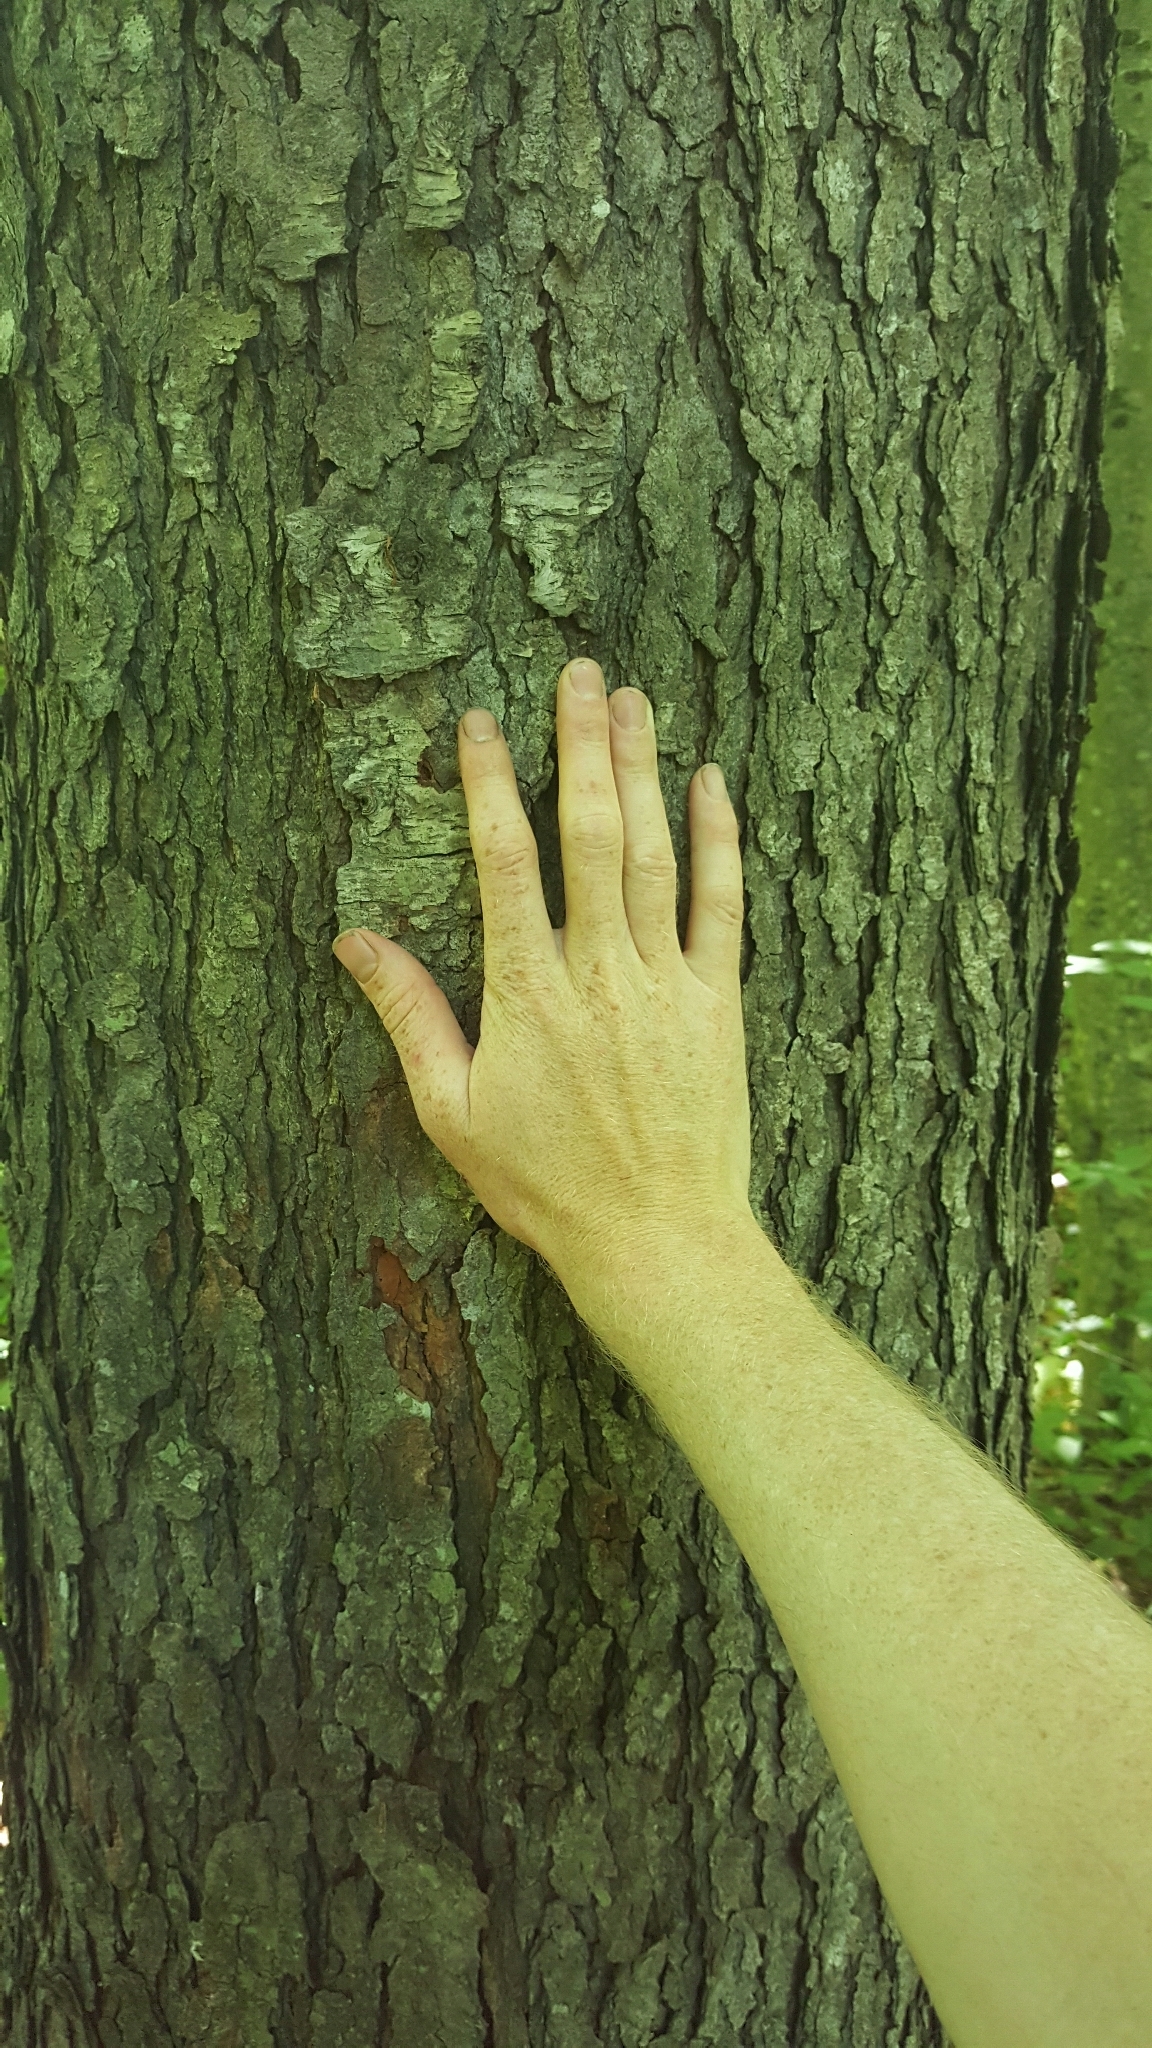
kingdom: Plantae
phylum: Tracheophyta
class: Magnoliopsida
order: Rosales
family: Rosaceae
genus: Prunus
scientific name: Prunus serotina
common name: Black cherry
